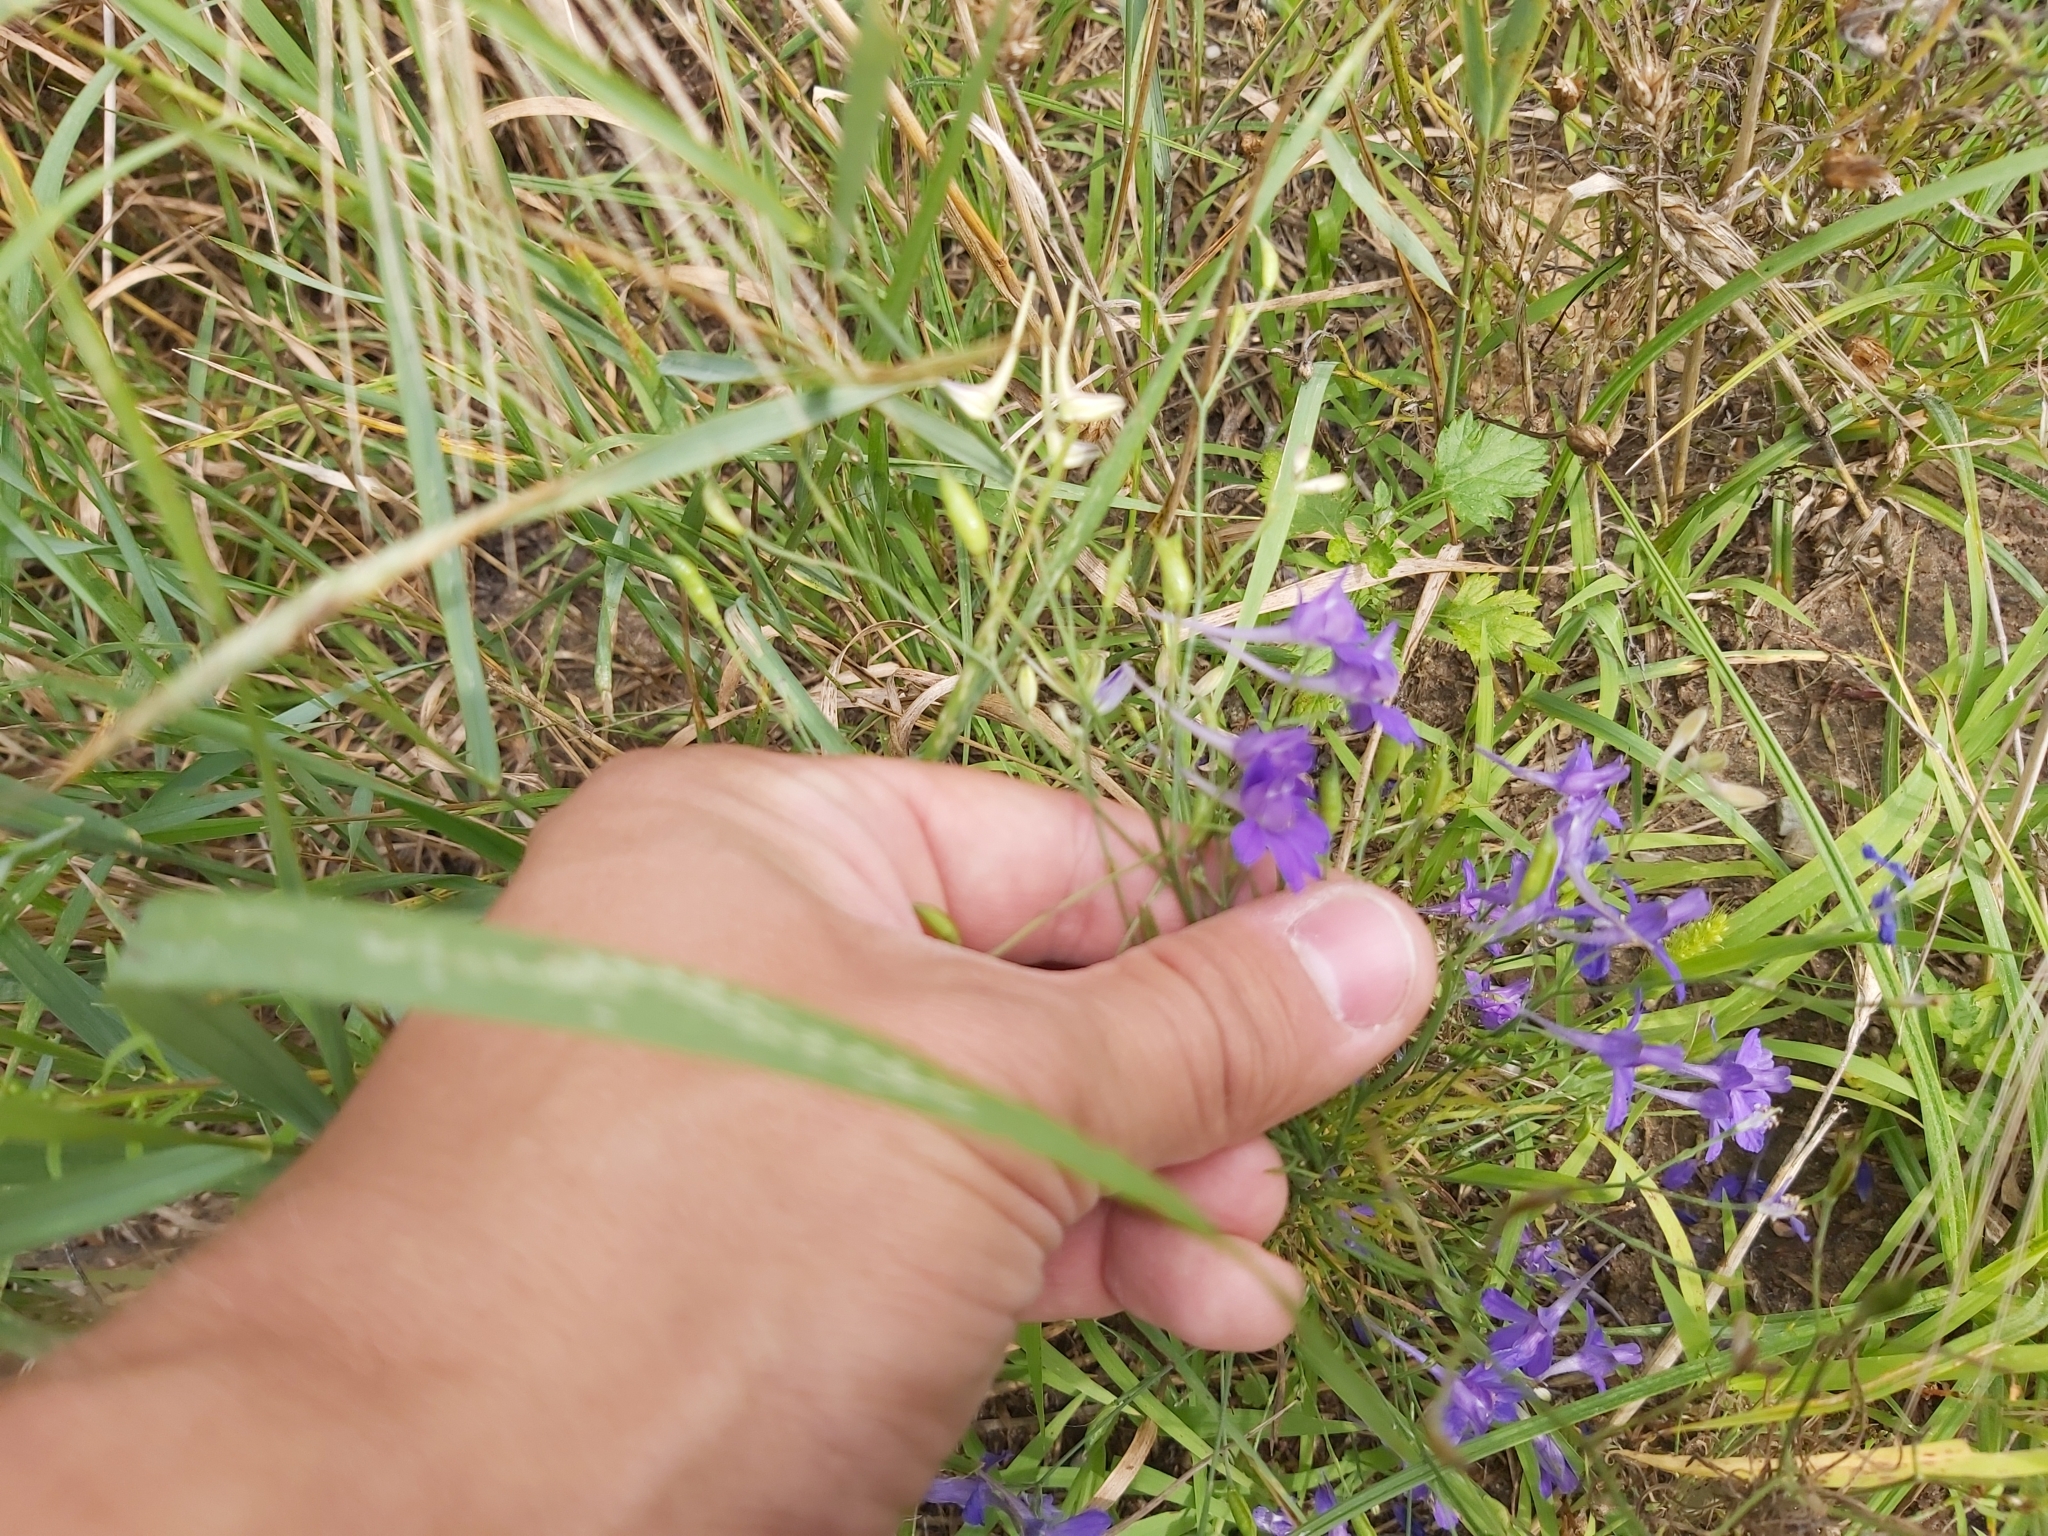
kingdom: Plantae
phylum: Tracheophyta
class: Magnoliopsida
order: Ranunculales
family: Ranunculaceae
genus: Delphinium
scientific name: Delphinium consolida
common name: Branching larkspur
